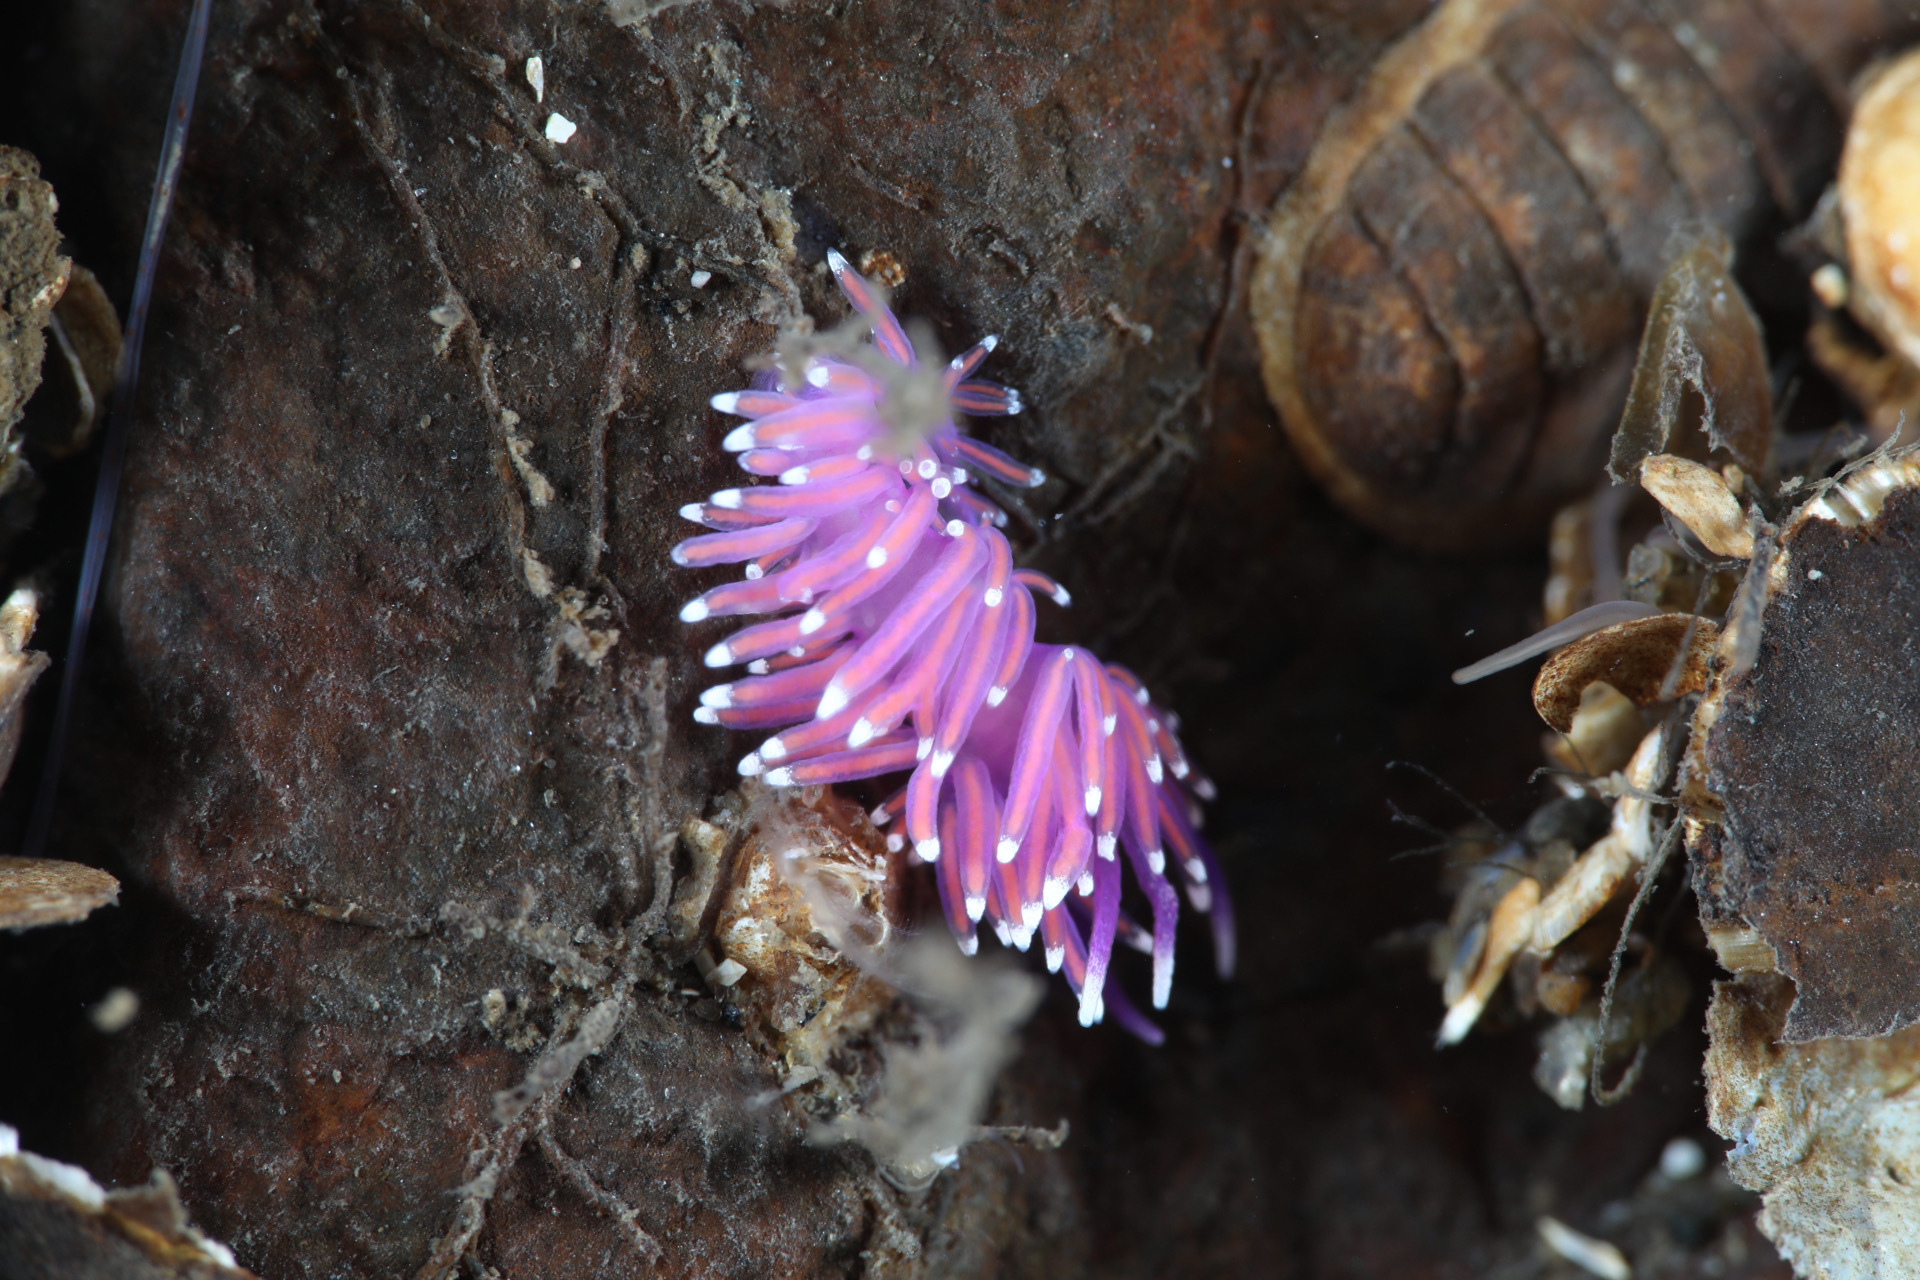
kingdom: Animalia
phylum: Mollusca
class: Gastropoda
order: Nudibranchia
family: Flabellinidae
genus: Edmundsella
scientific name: Edmundsella pedata
